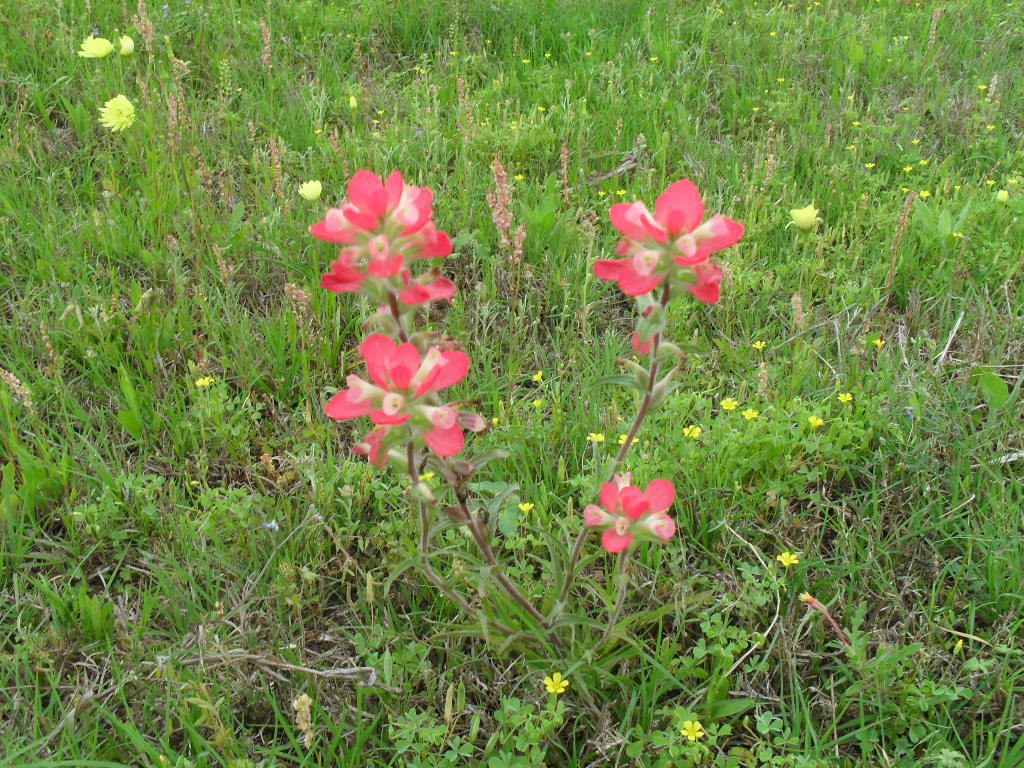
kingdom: Plantae
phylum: Tracheophyta
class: Magnoliopsida
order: Lamiales
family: Orobanchaceae
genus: Castilleja
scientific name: Castilleja indivisa
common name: Texas paintbrush
